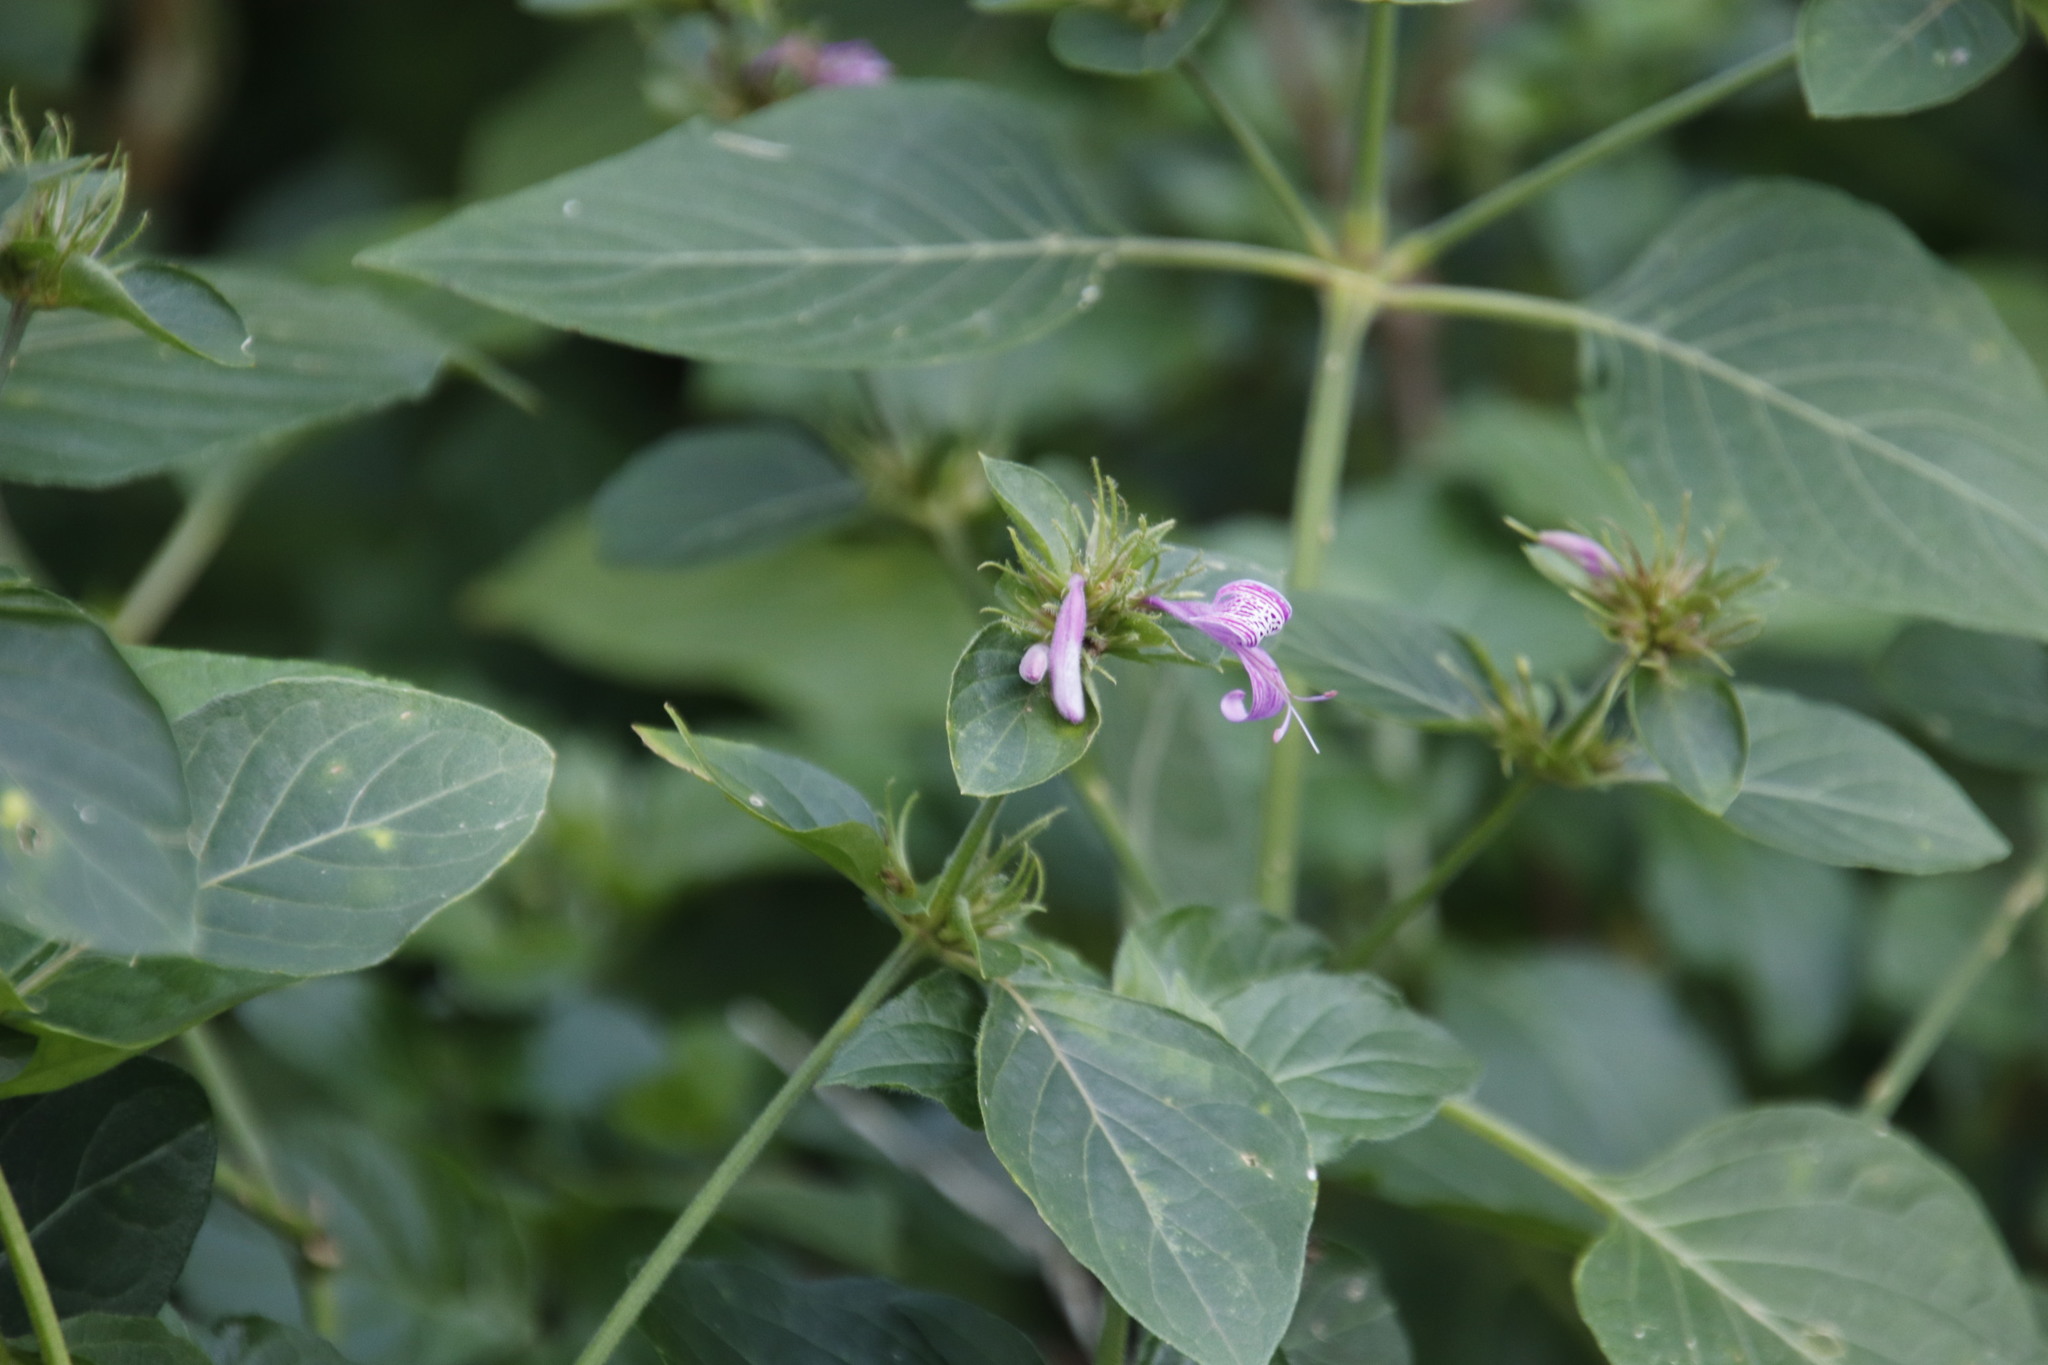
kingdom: Plantae
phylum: Tracheophyta
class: Magnoliopsida
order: Lamiales
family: Acanthaceae
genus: Hypoestes
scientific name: Hypoestes aristata
